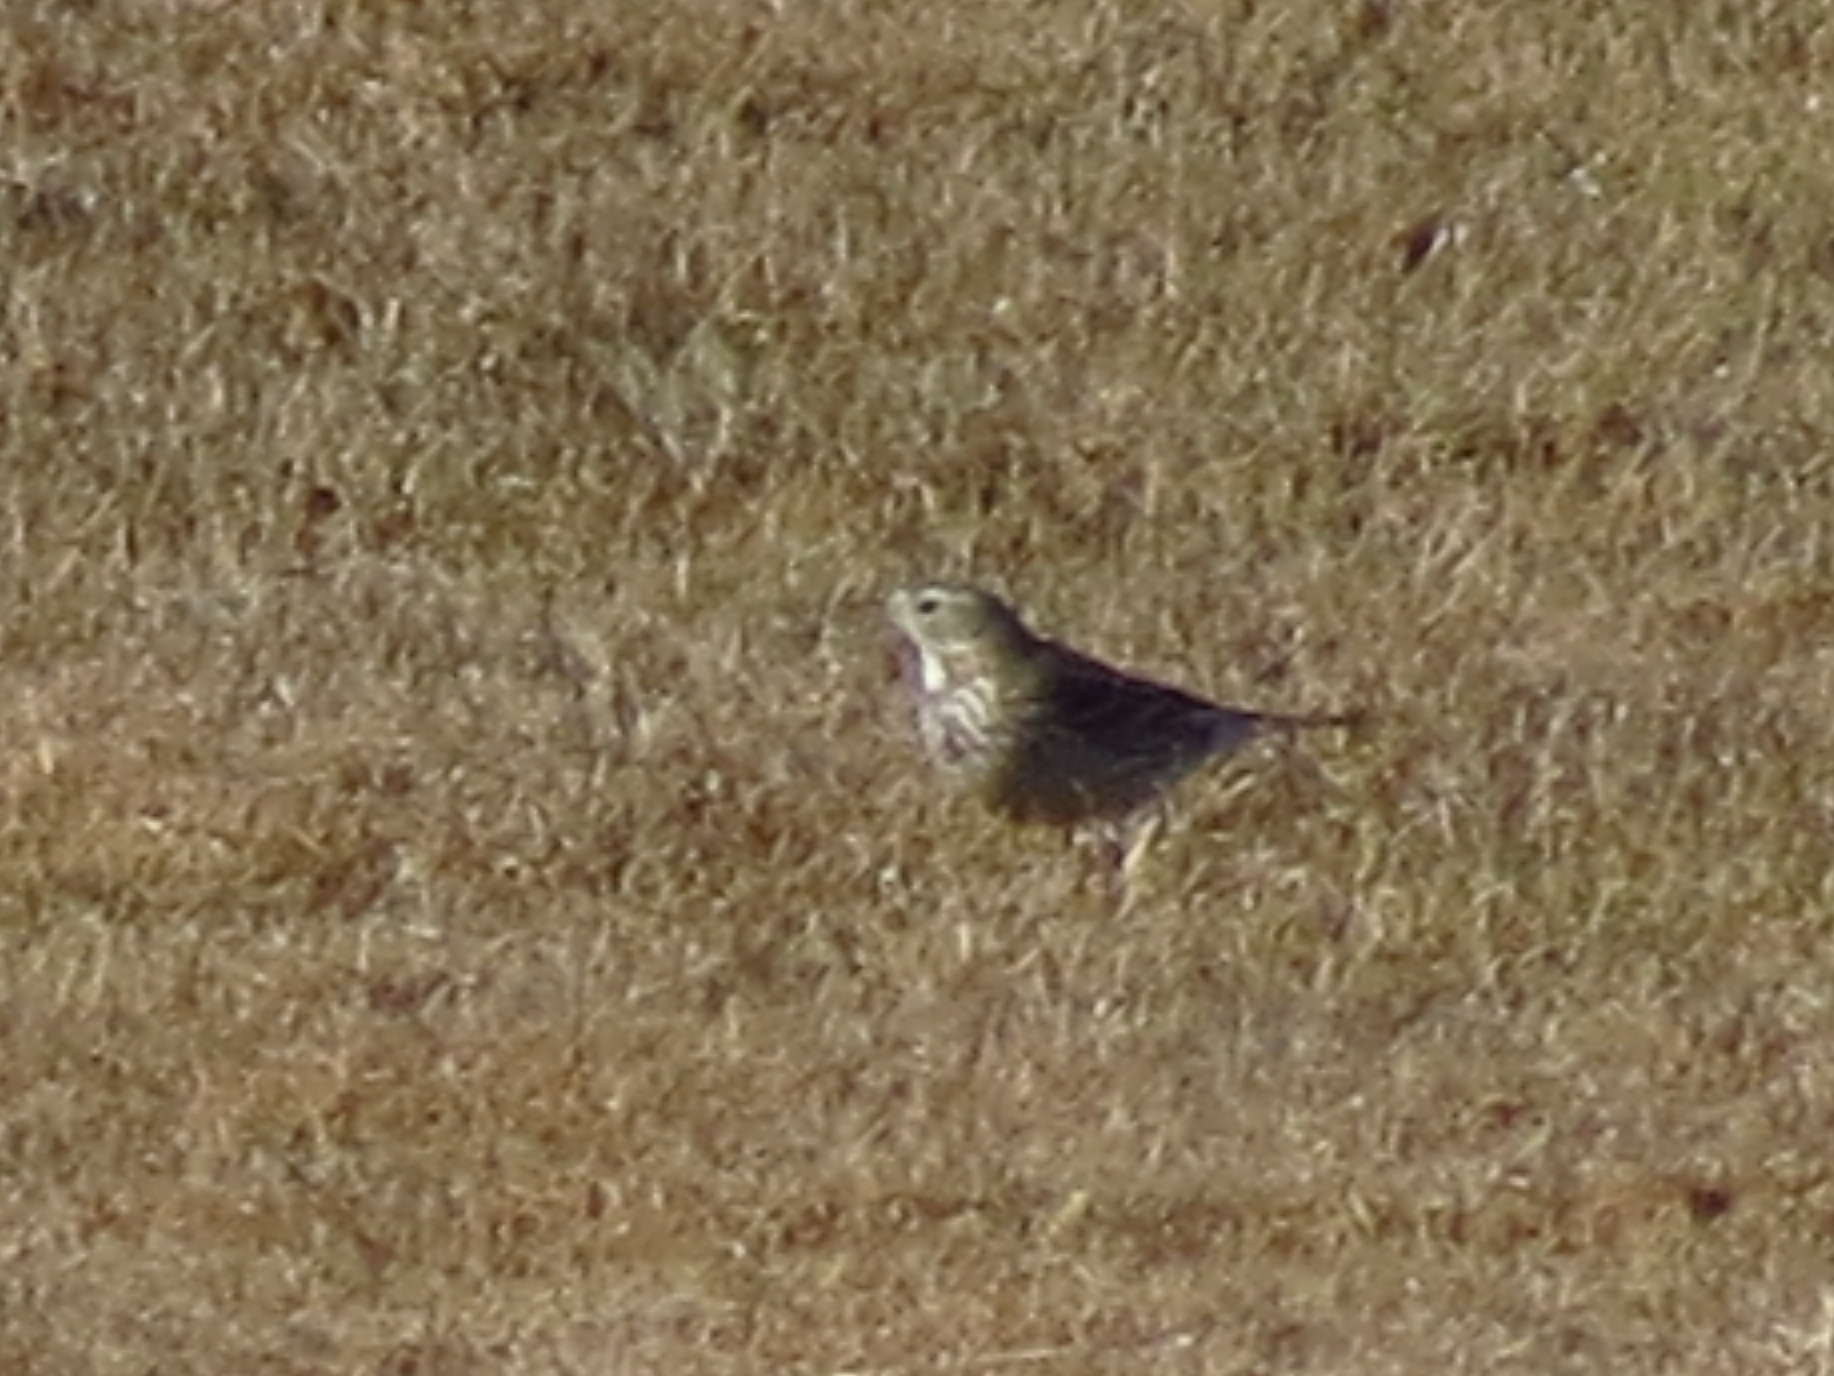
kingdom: Animalia
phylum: Chordata
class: Aves
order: Passeriformes
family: Motacillidae
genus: Anthus
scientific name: Anthus rubescens
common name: Buff-bellied pipit
